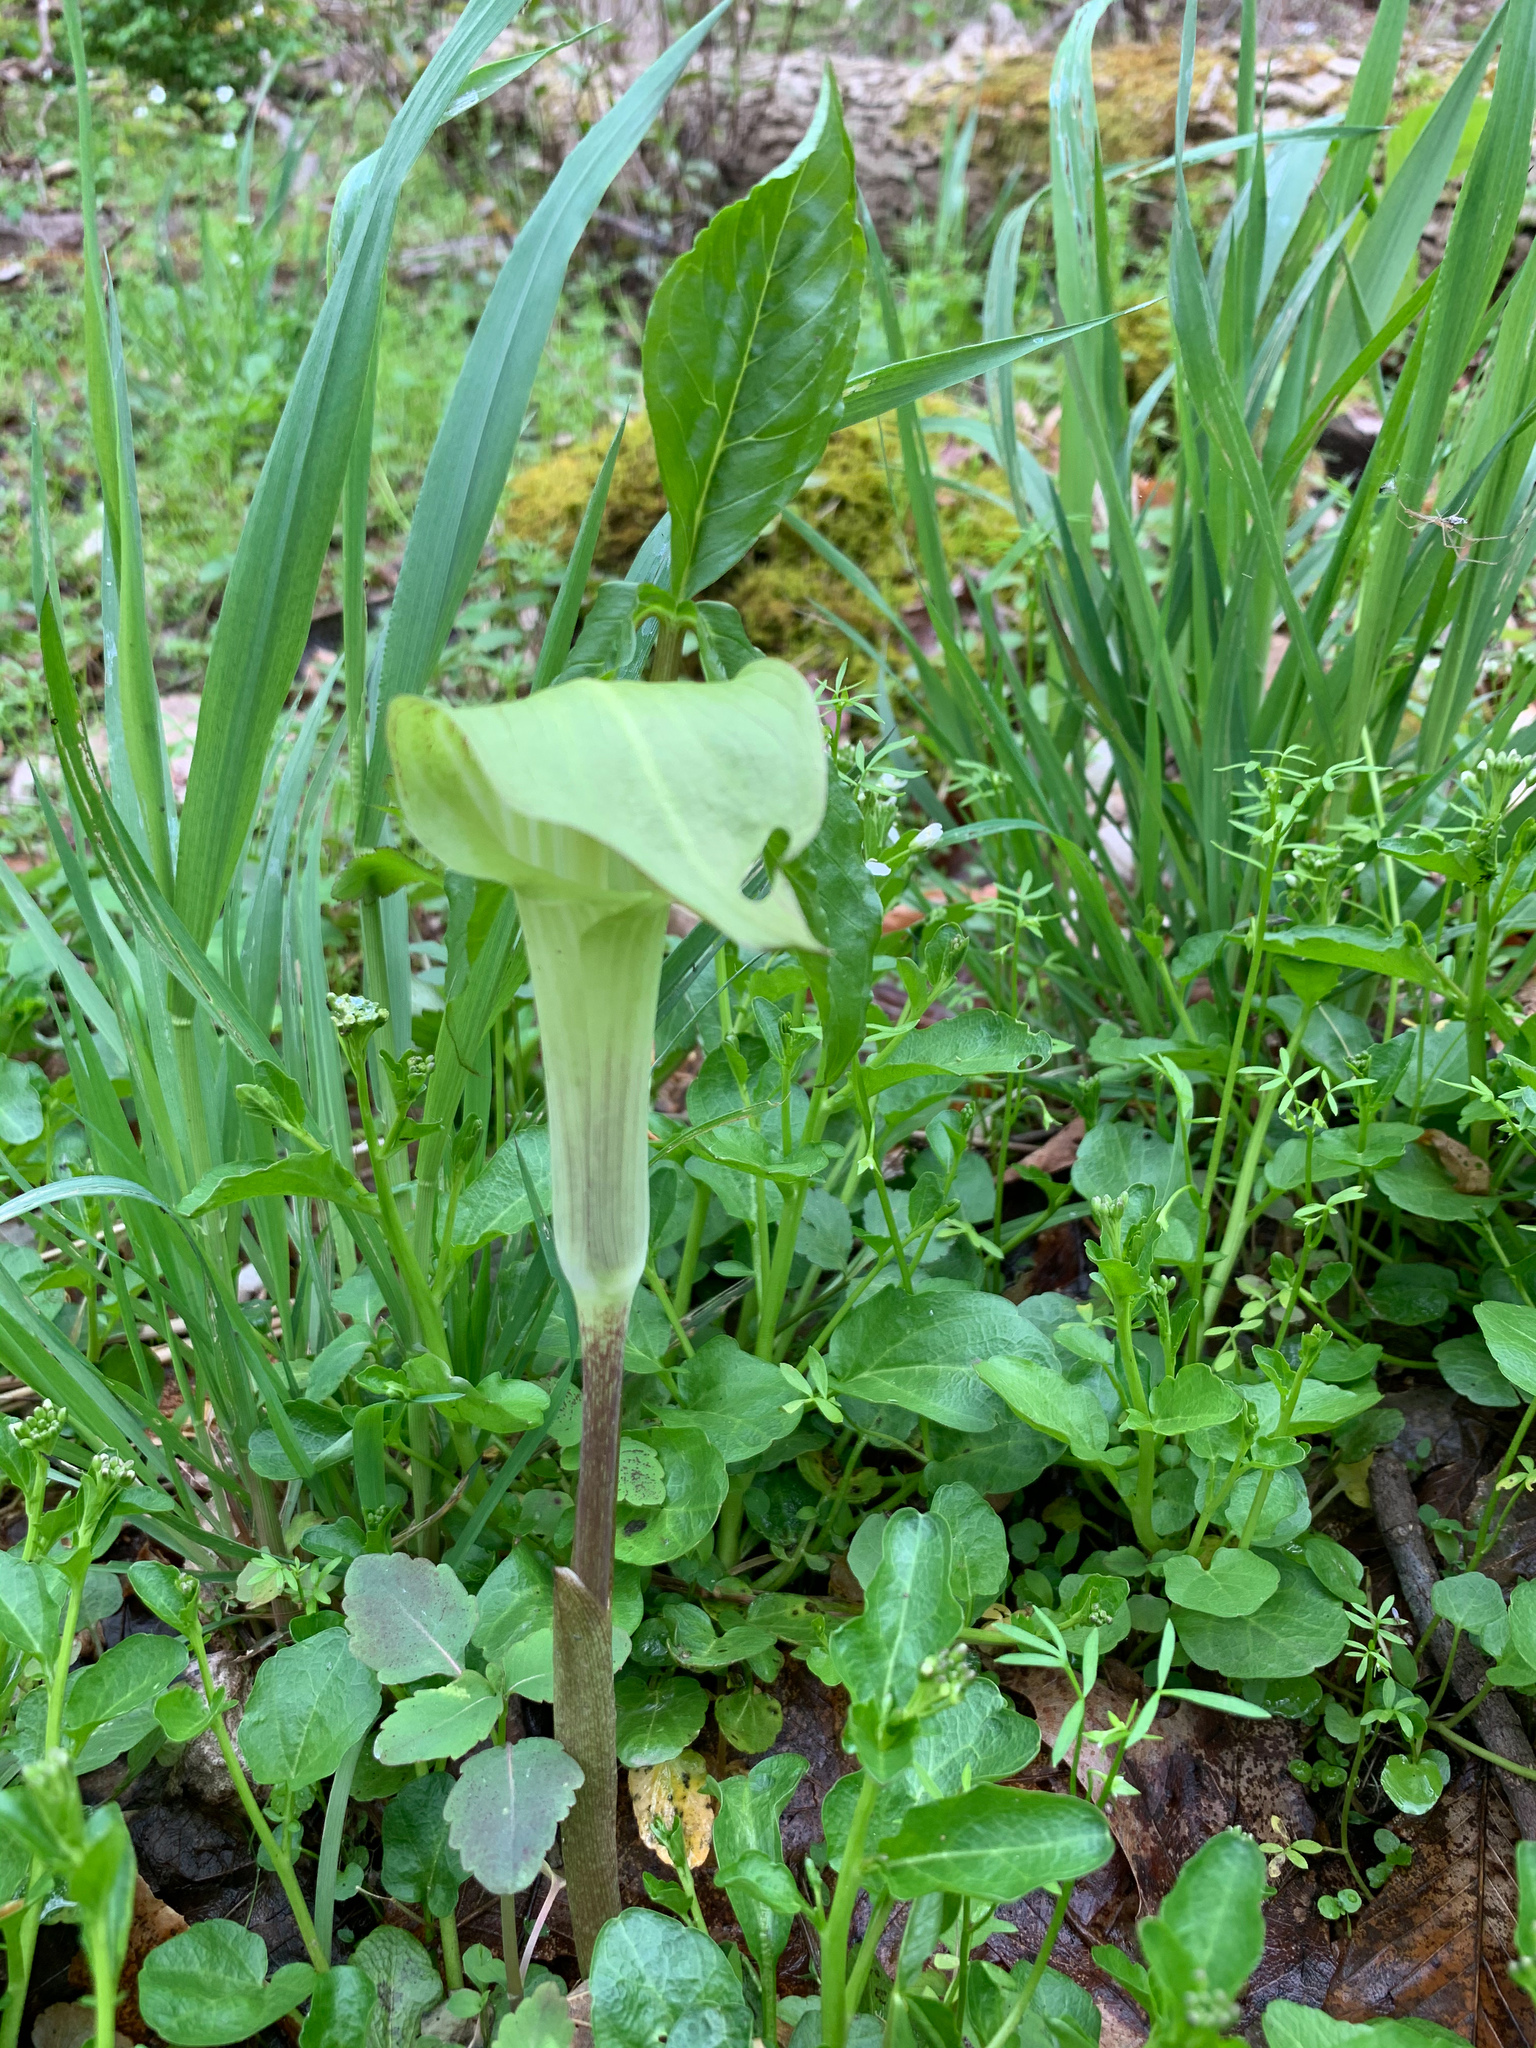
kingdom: Plantae
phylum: Tracheophyta
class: Liliopsida
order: Alismatales
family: Araceae
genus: Arisaema
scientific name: Arisaema triphyllum
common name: Jack-in-the-pulpit
